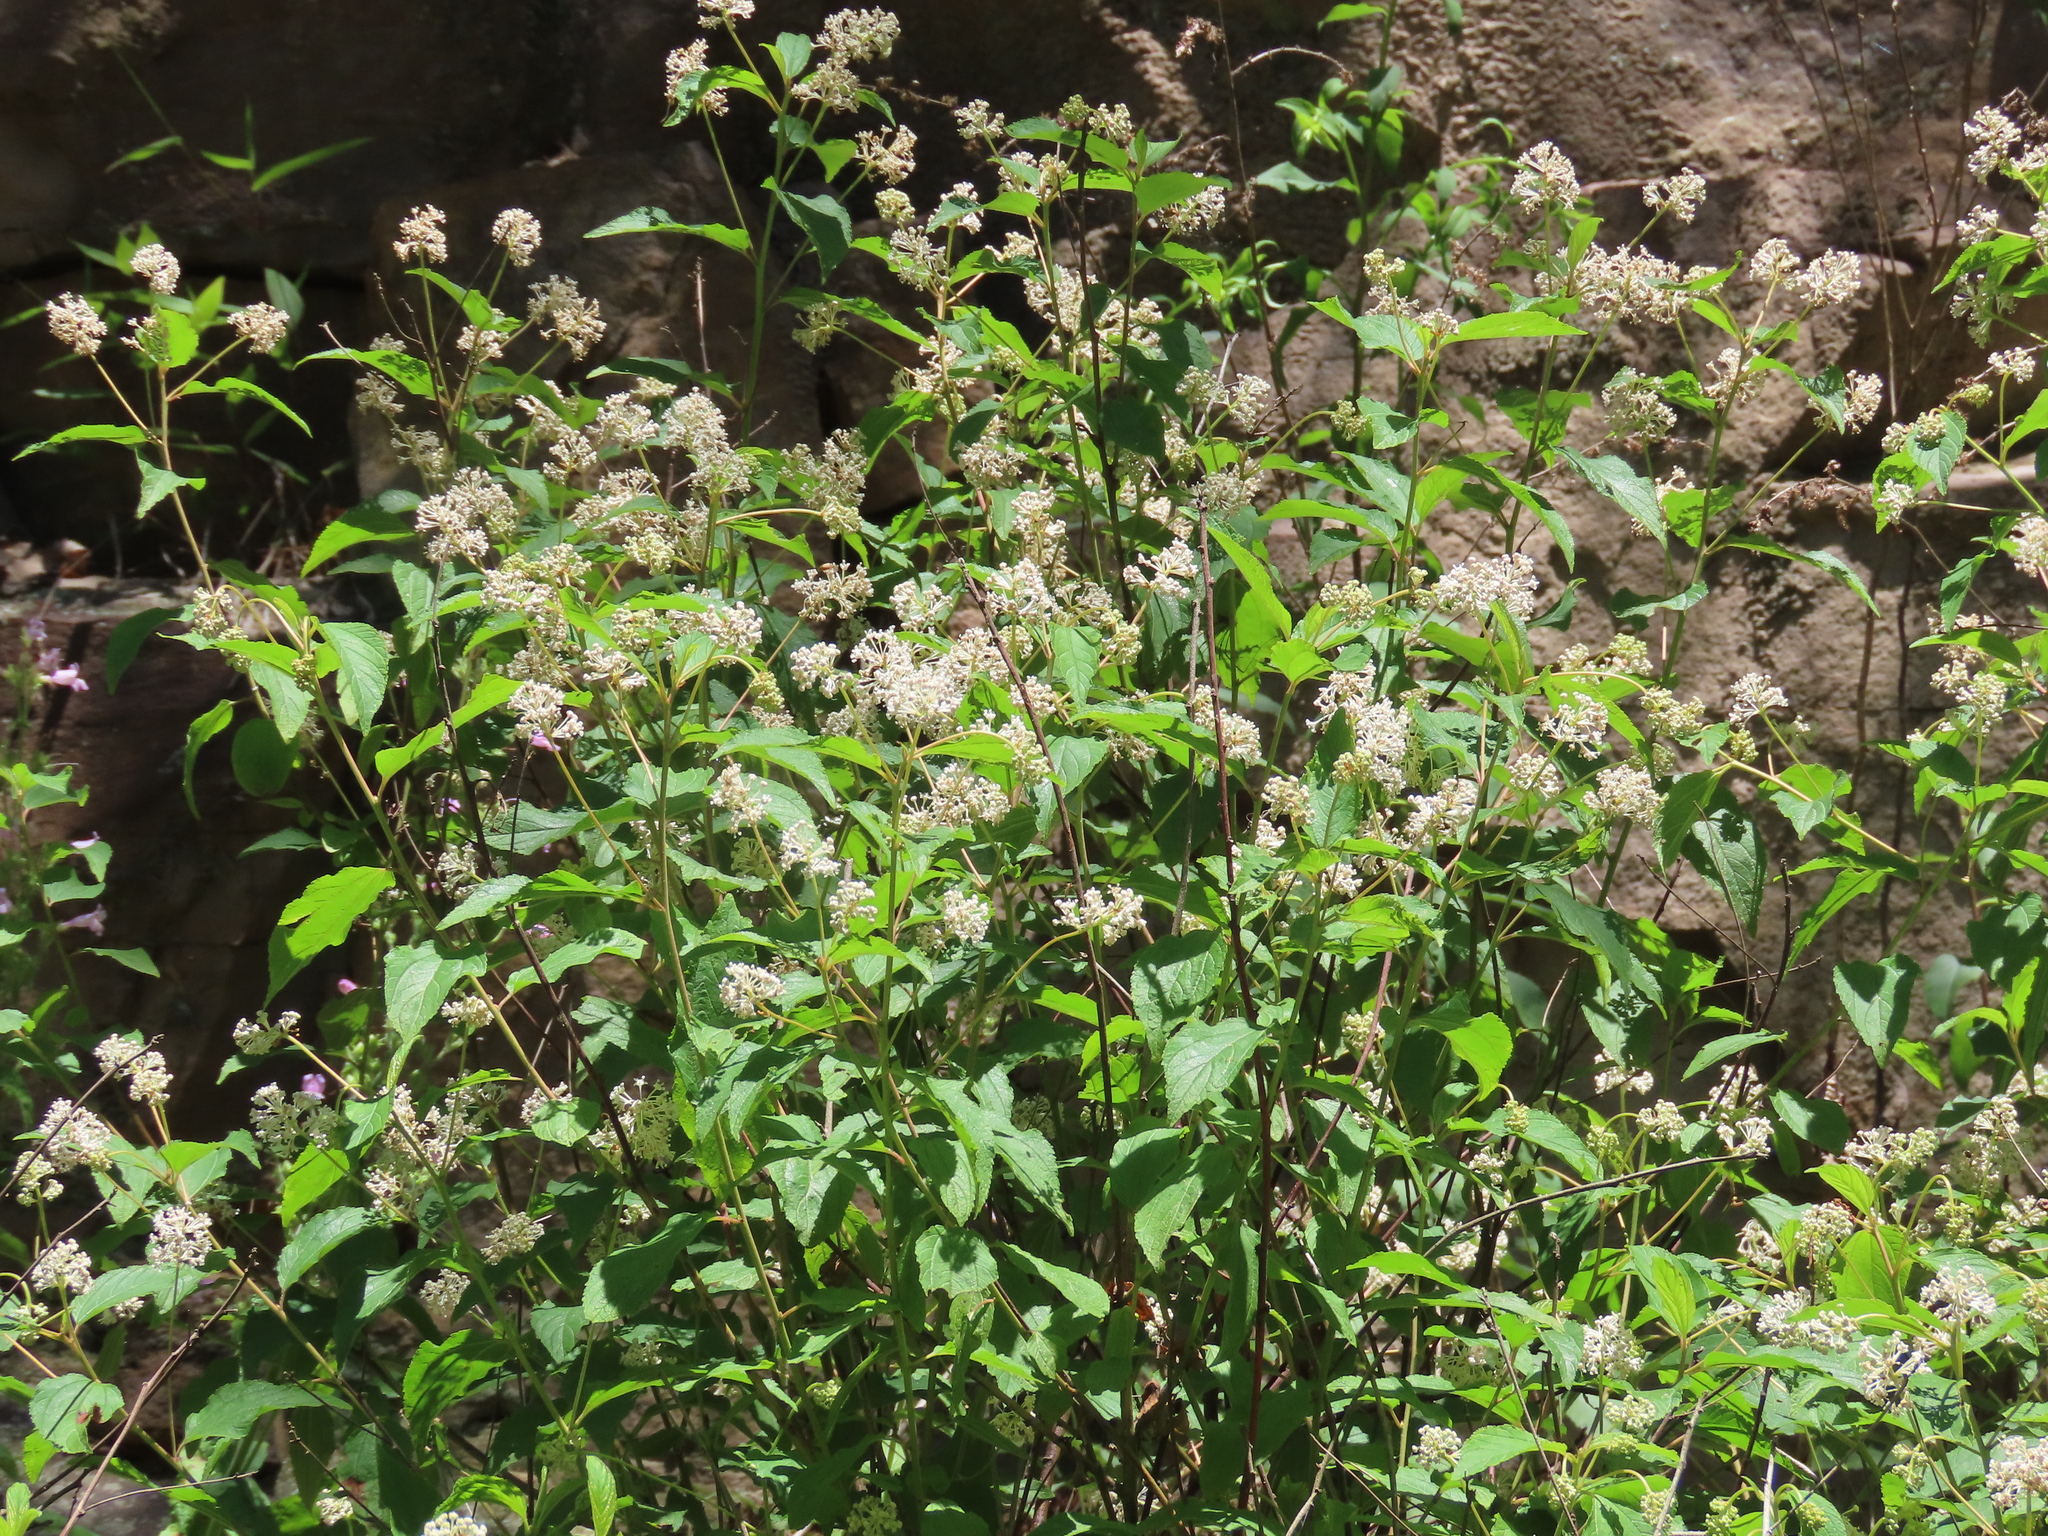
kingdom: Plantae
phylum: Tracheophyta
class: Magnoliopsida
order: Rosales
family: Rhamnaceae
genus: Ceanothus
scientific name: Ceanothus americanus
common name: Redroot
